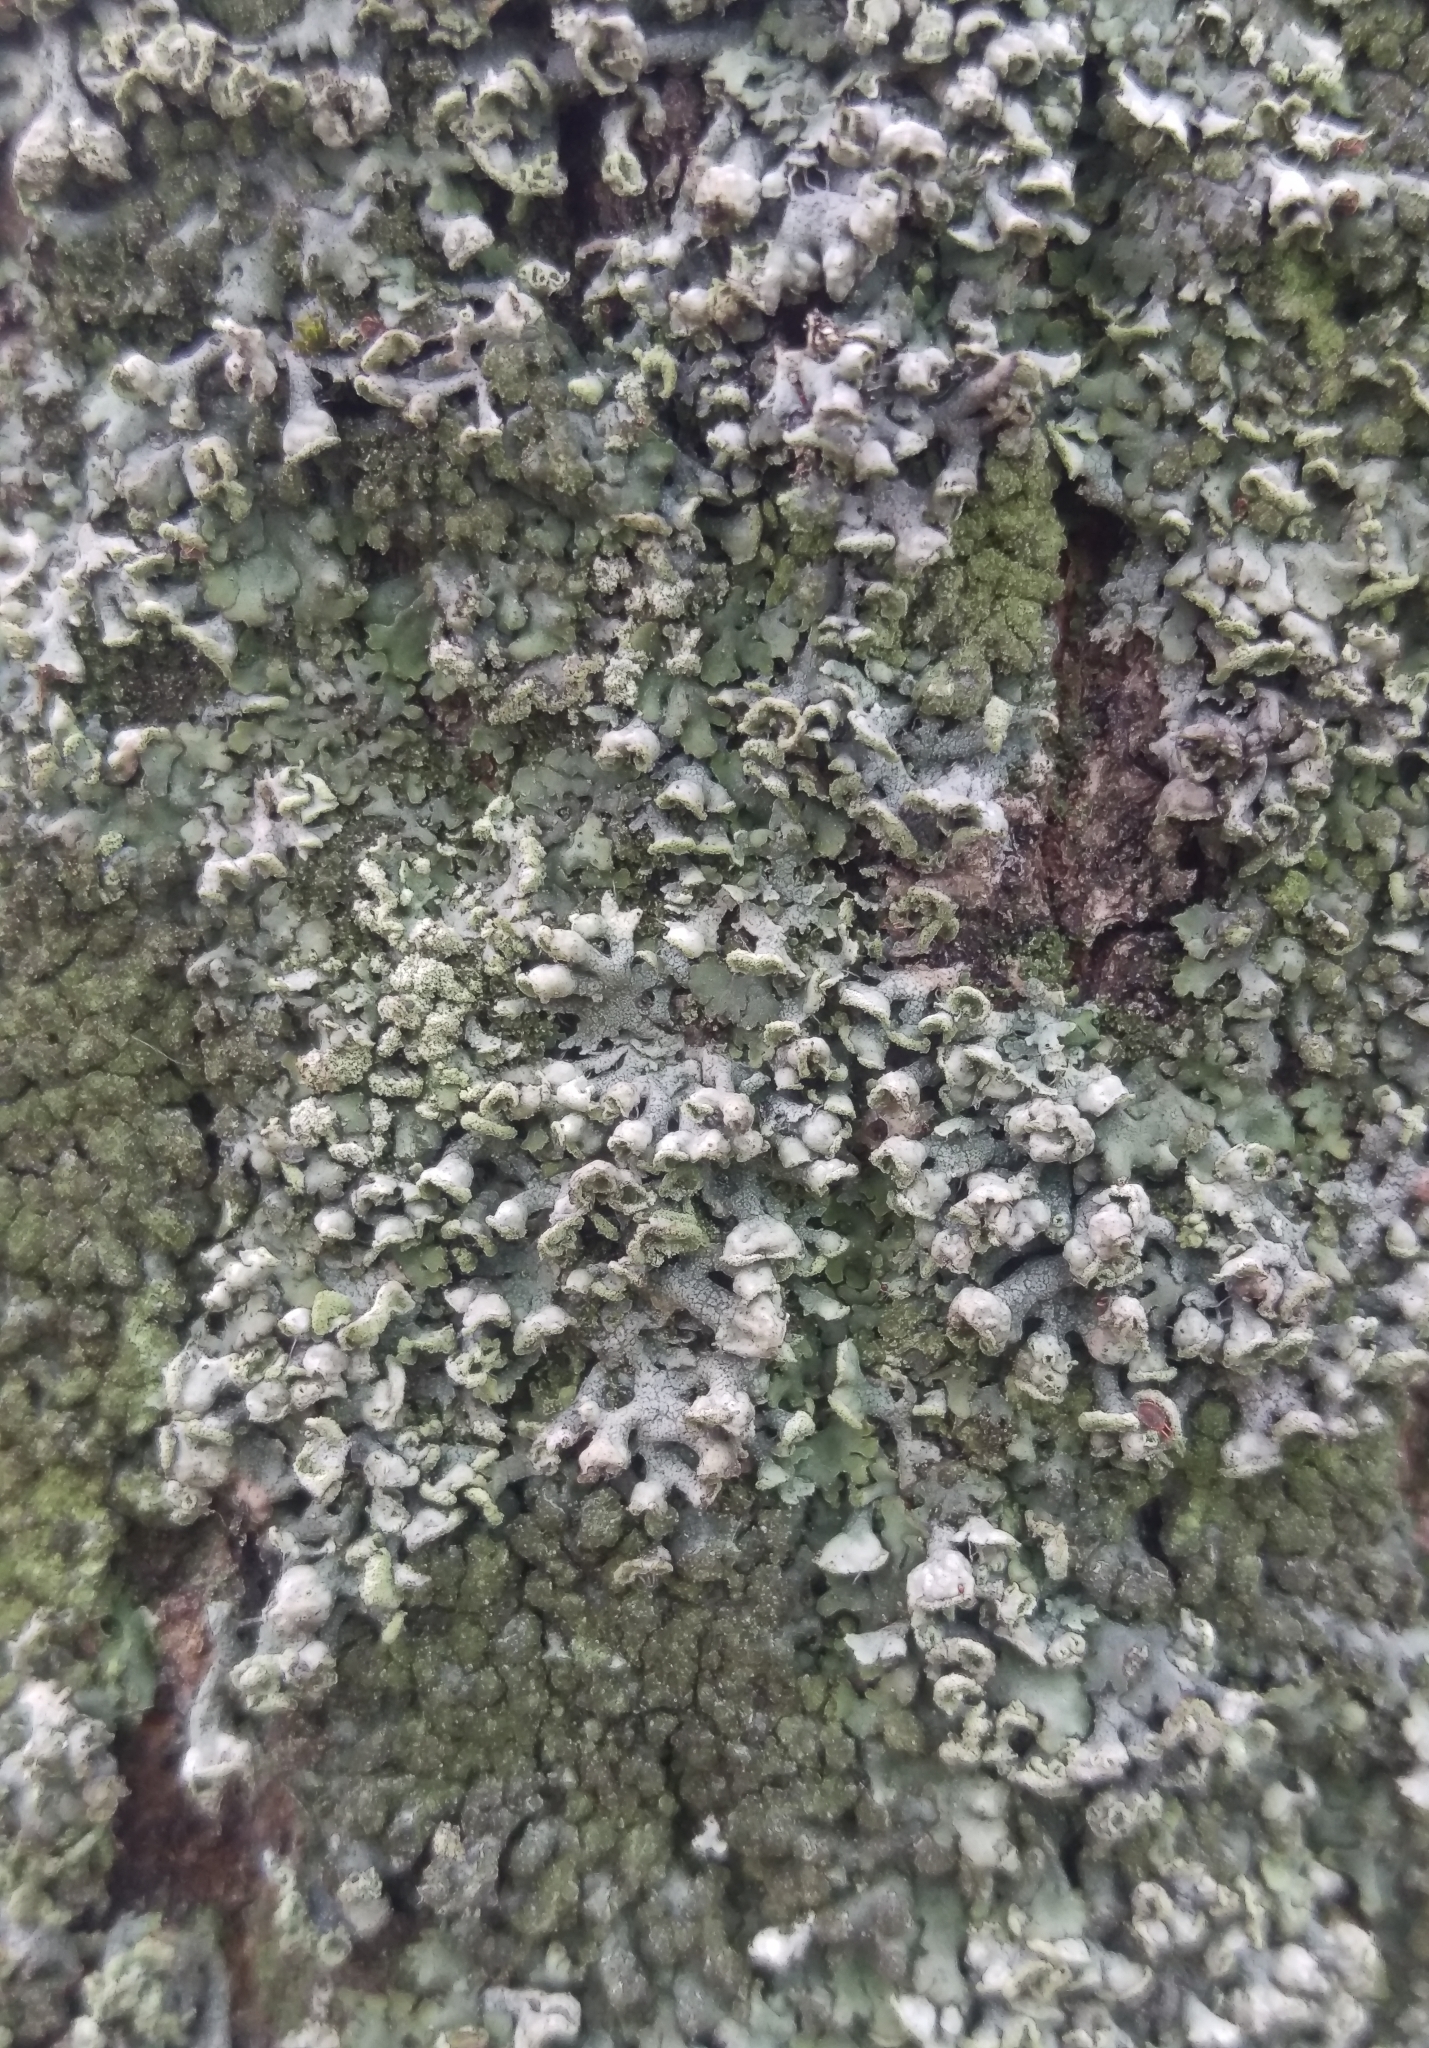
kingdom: Fungi
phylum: Ascomycota
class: Lecanoromycetes
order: Caliciales
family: Physciaceae
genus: Physcia
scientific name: Physcia adscendens
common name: Hooded rosette lichen
